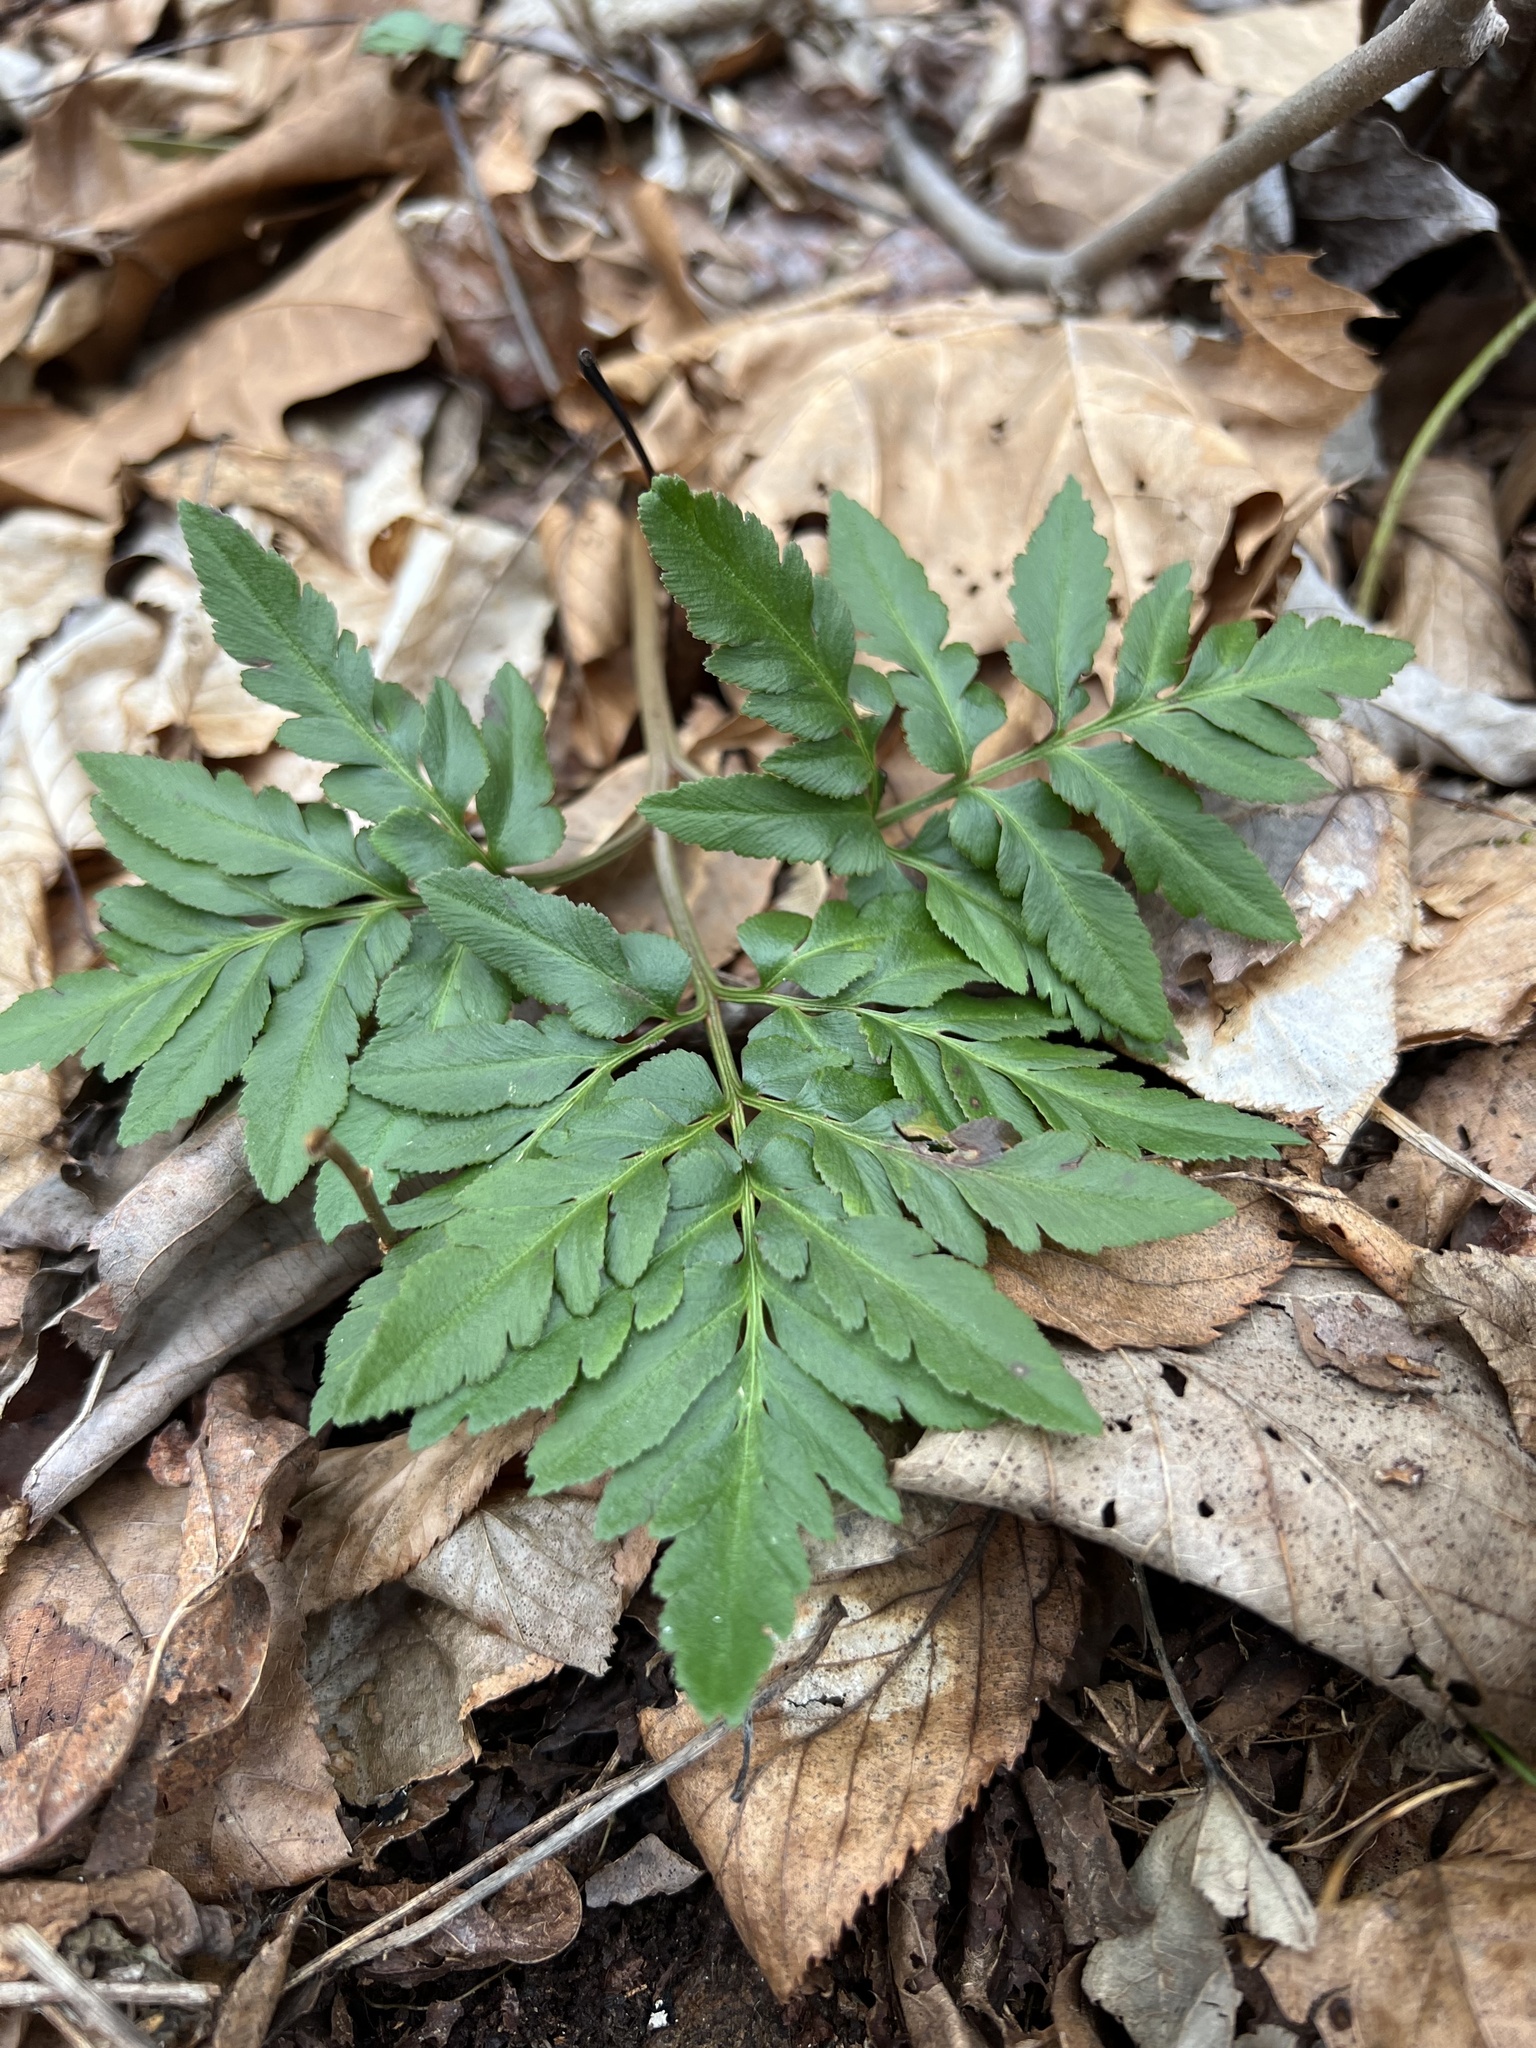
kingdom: Plantae
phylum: Tracheophyta
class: Polypodiopsida
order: Ophioglossales
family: Ophioglossaceae
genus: Sceptridium
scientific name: Sceptridium dissectum
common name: Cut-leaved grapefern
